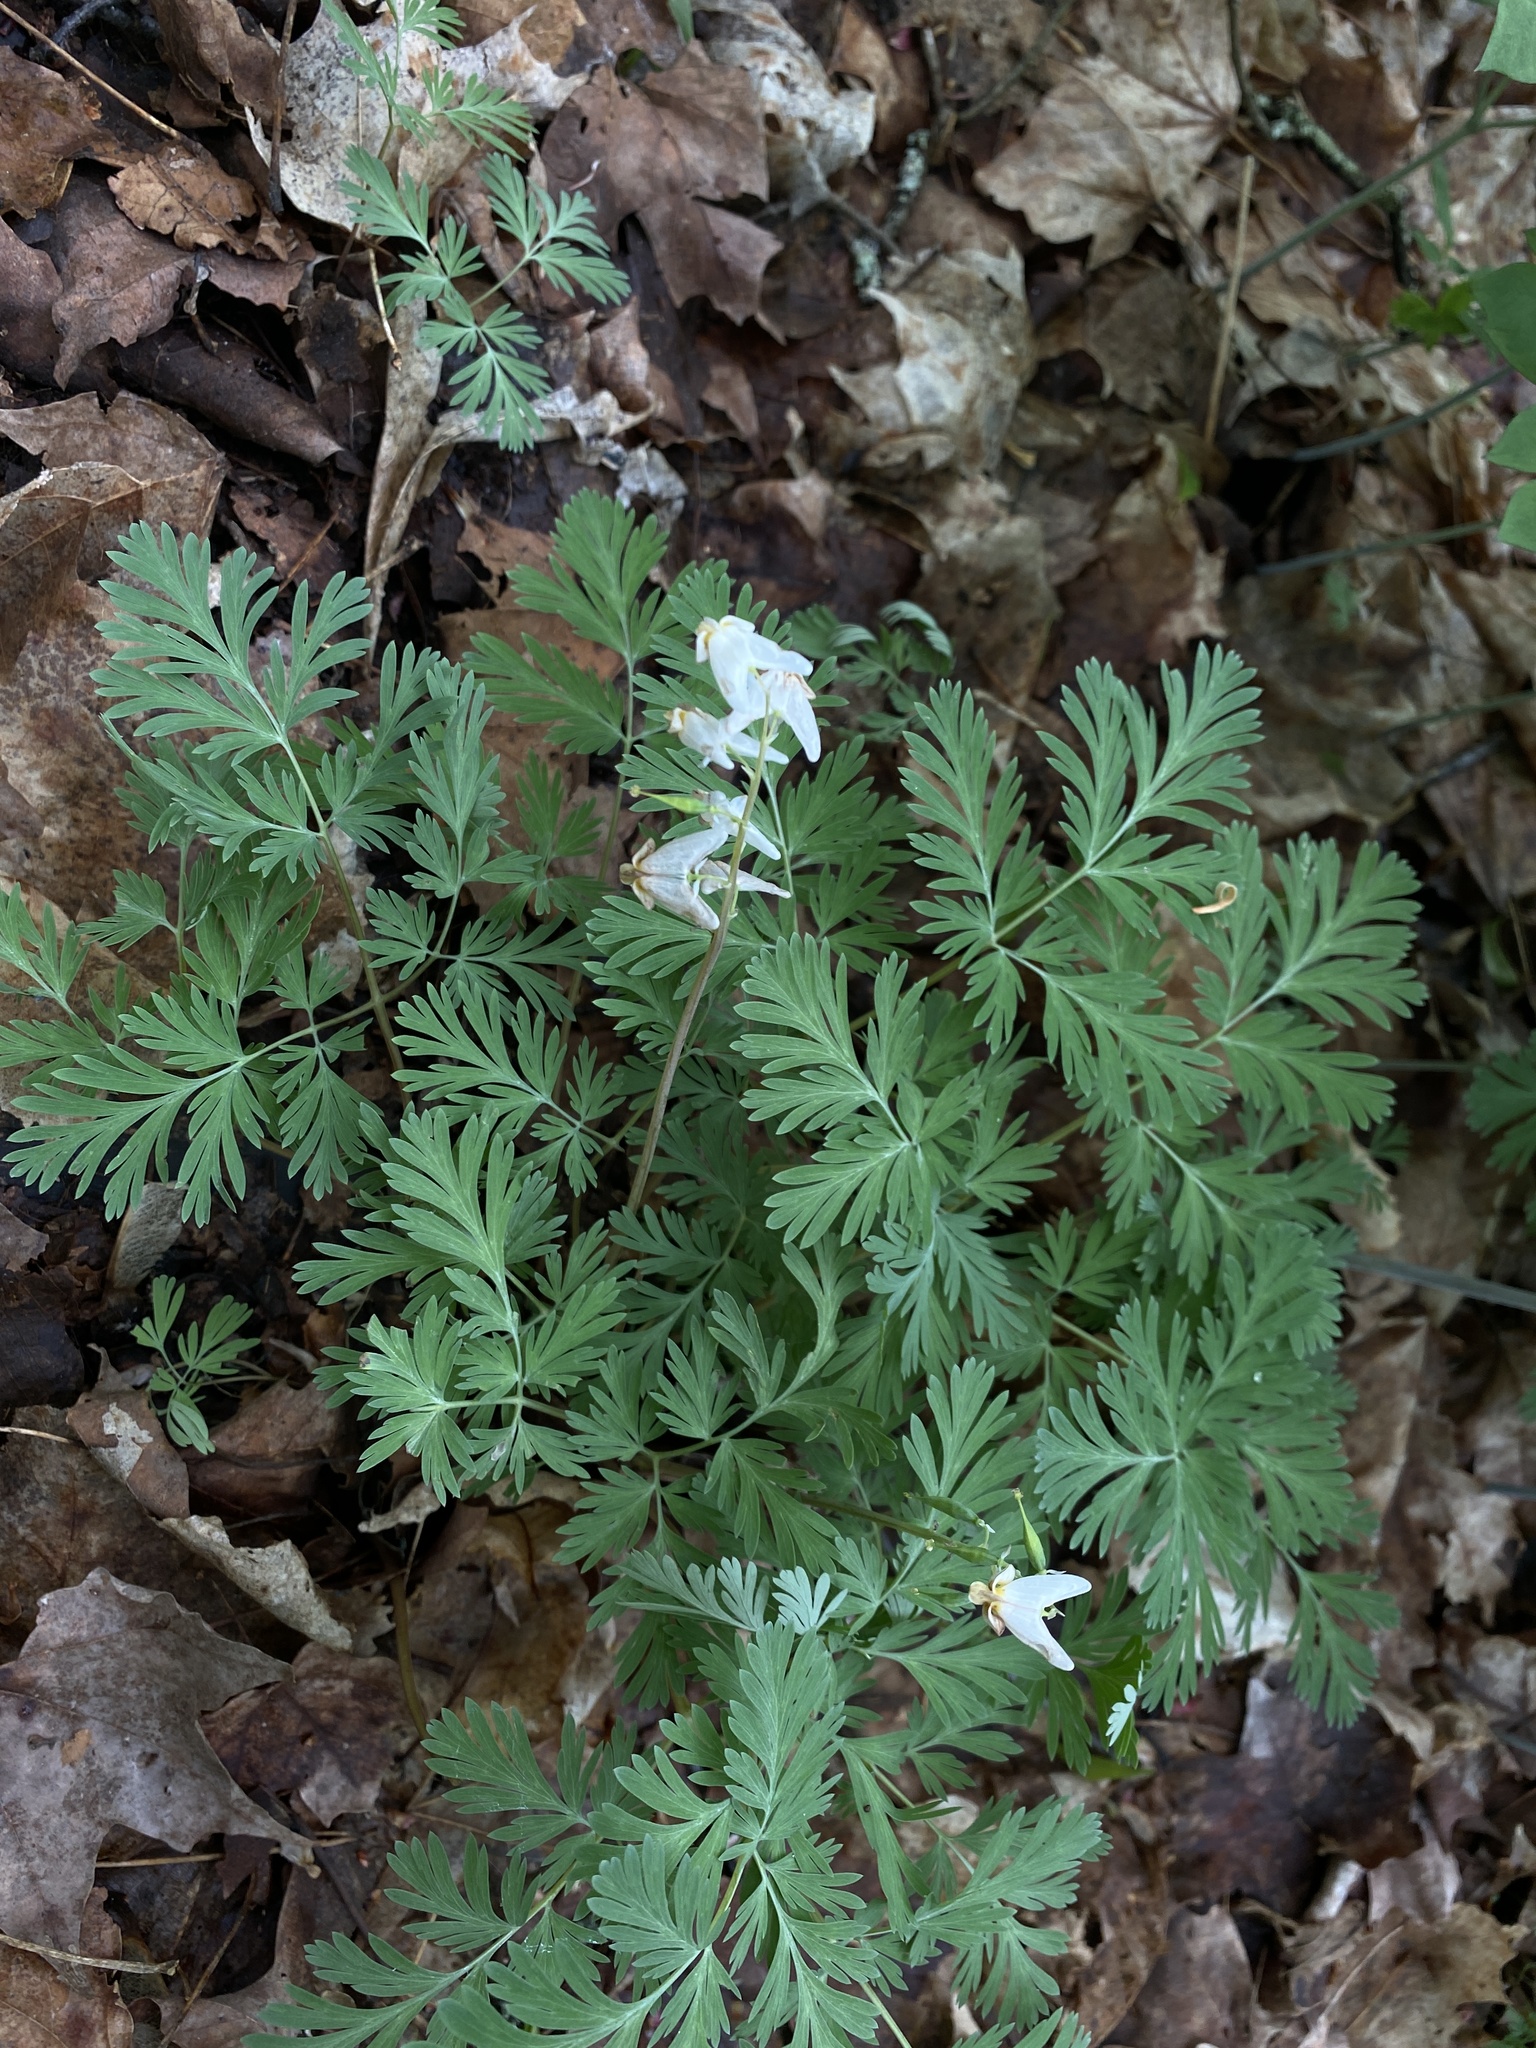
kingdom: Plantae
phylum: Tracheophyta
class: Magnoliopsida
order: Ranunculales
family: Papaveraceae
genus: Dicentra
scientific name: Dicentra cucullaria
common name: Dutchman's breeches
